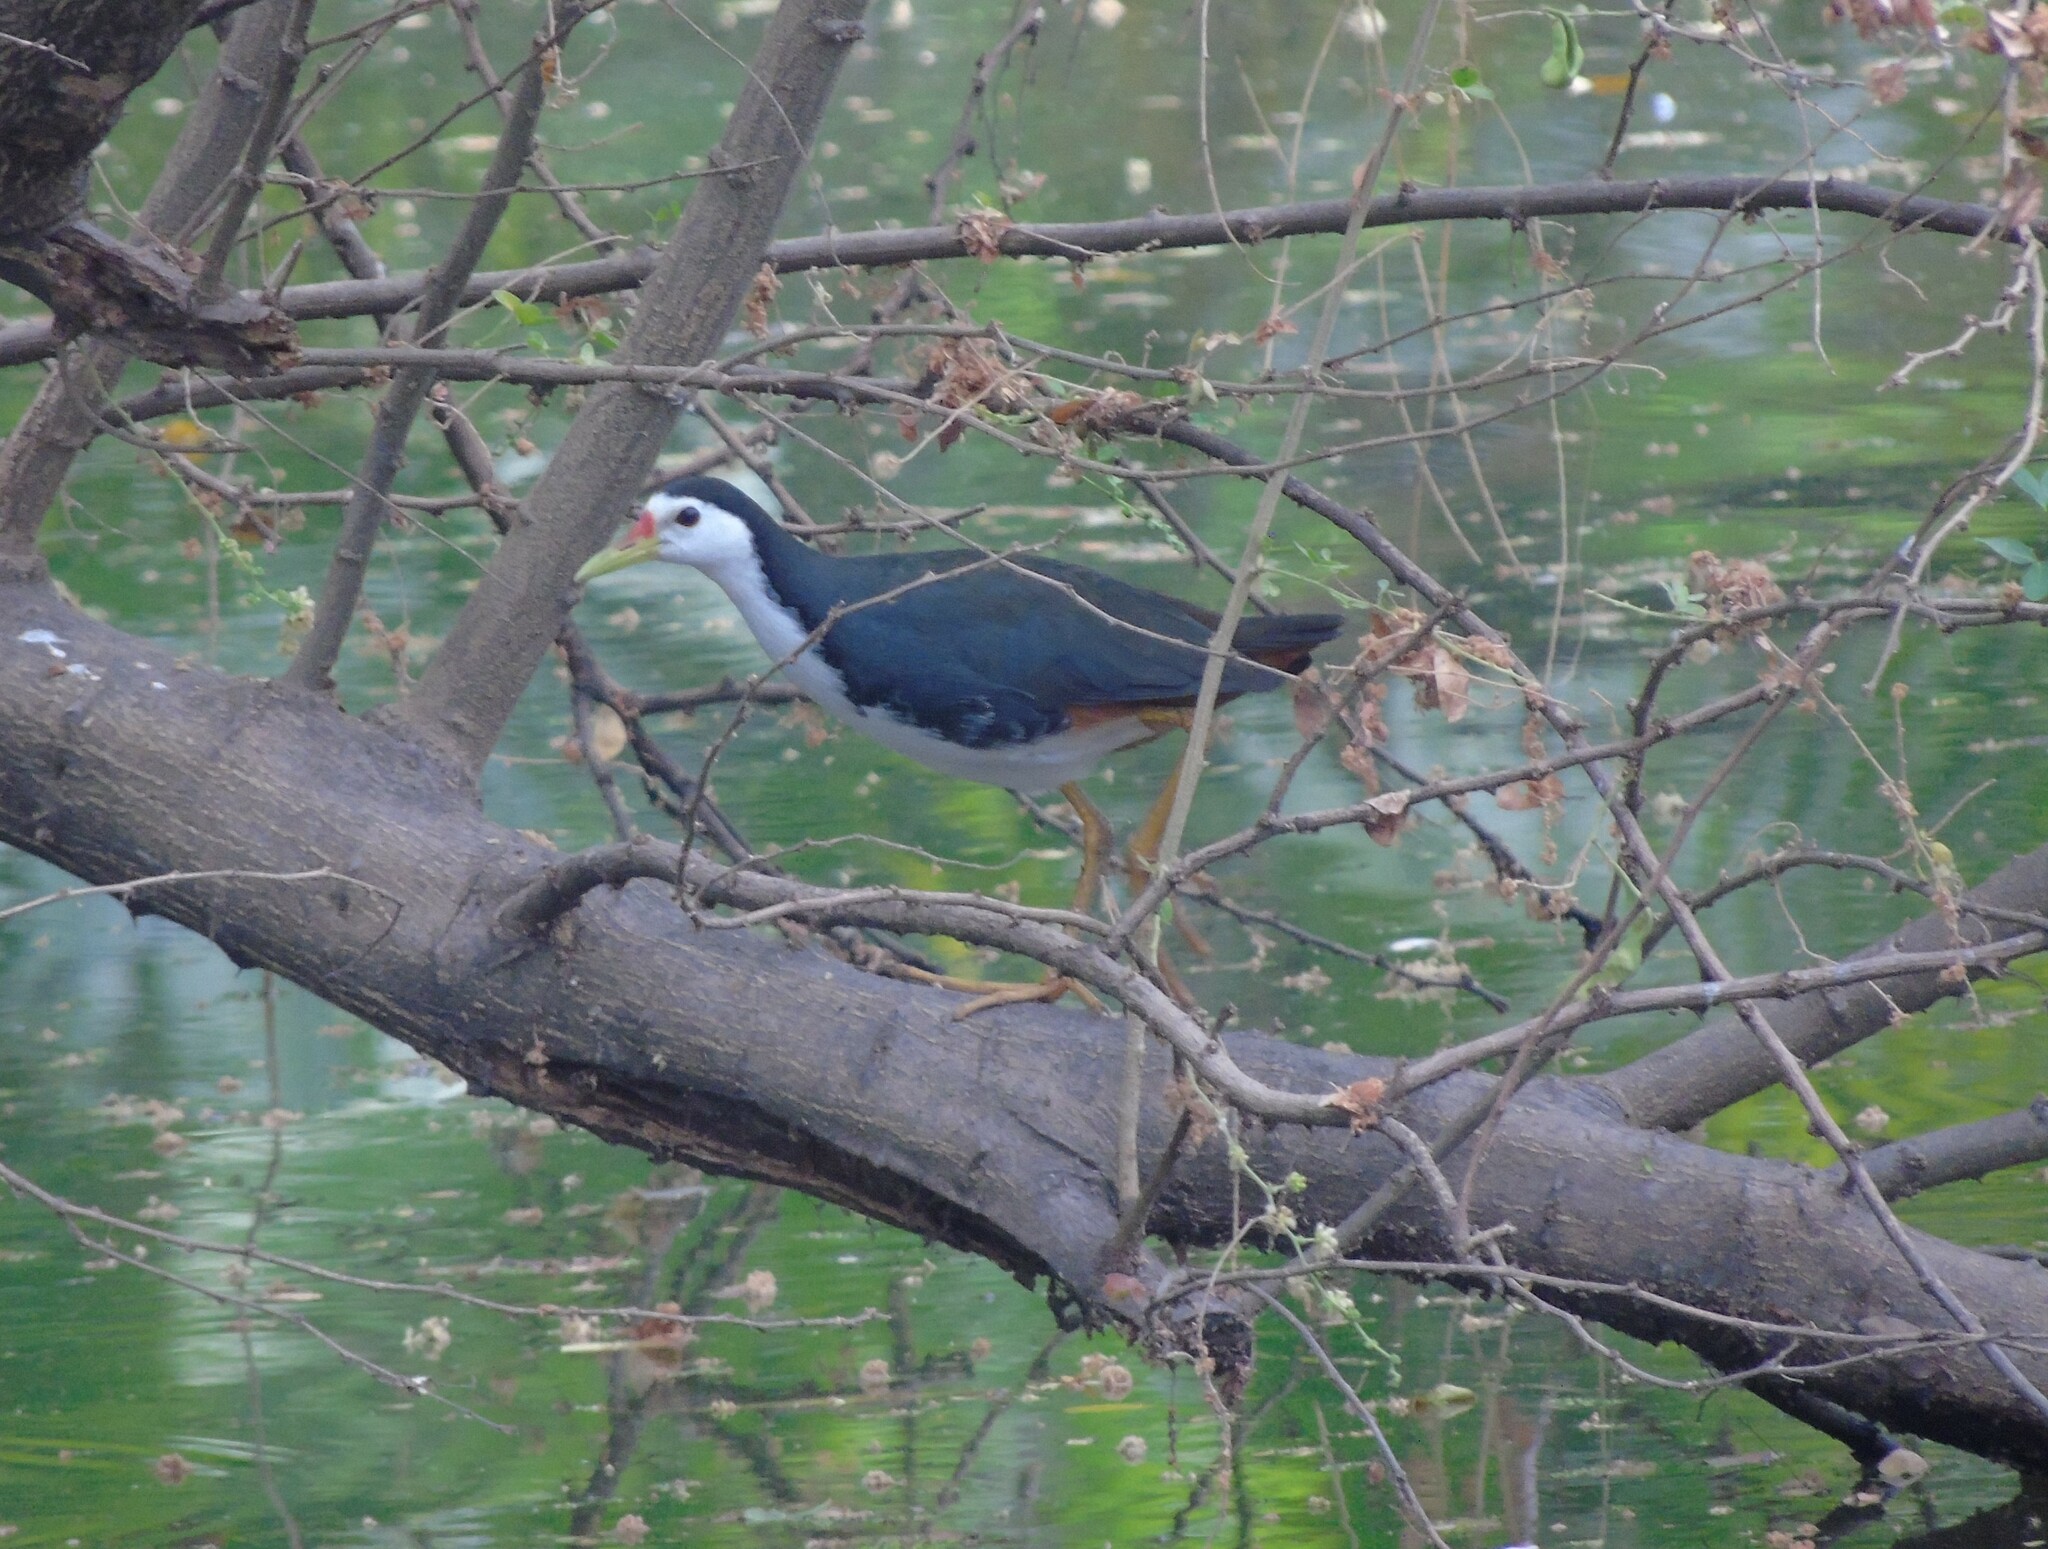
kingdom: Animalia
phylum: Chordata
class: Aves
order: Gruiformes
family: Rallidae
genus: Amaurornis
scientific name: Amaurornis phoenicurus
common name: White-breasted waterhen
